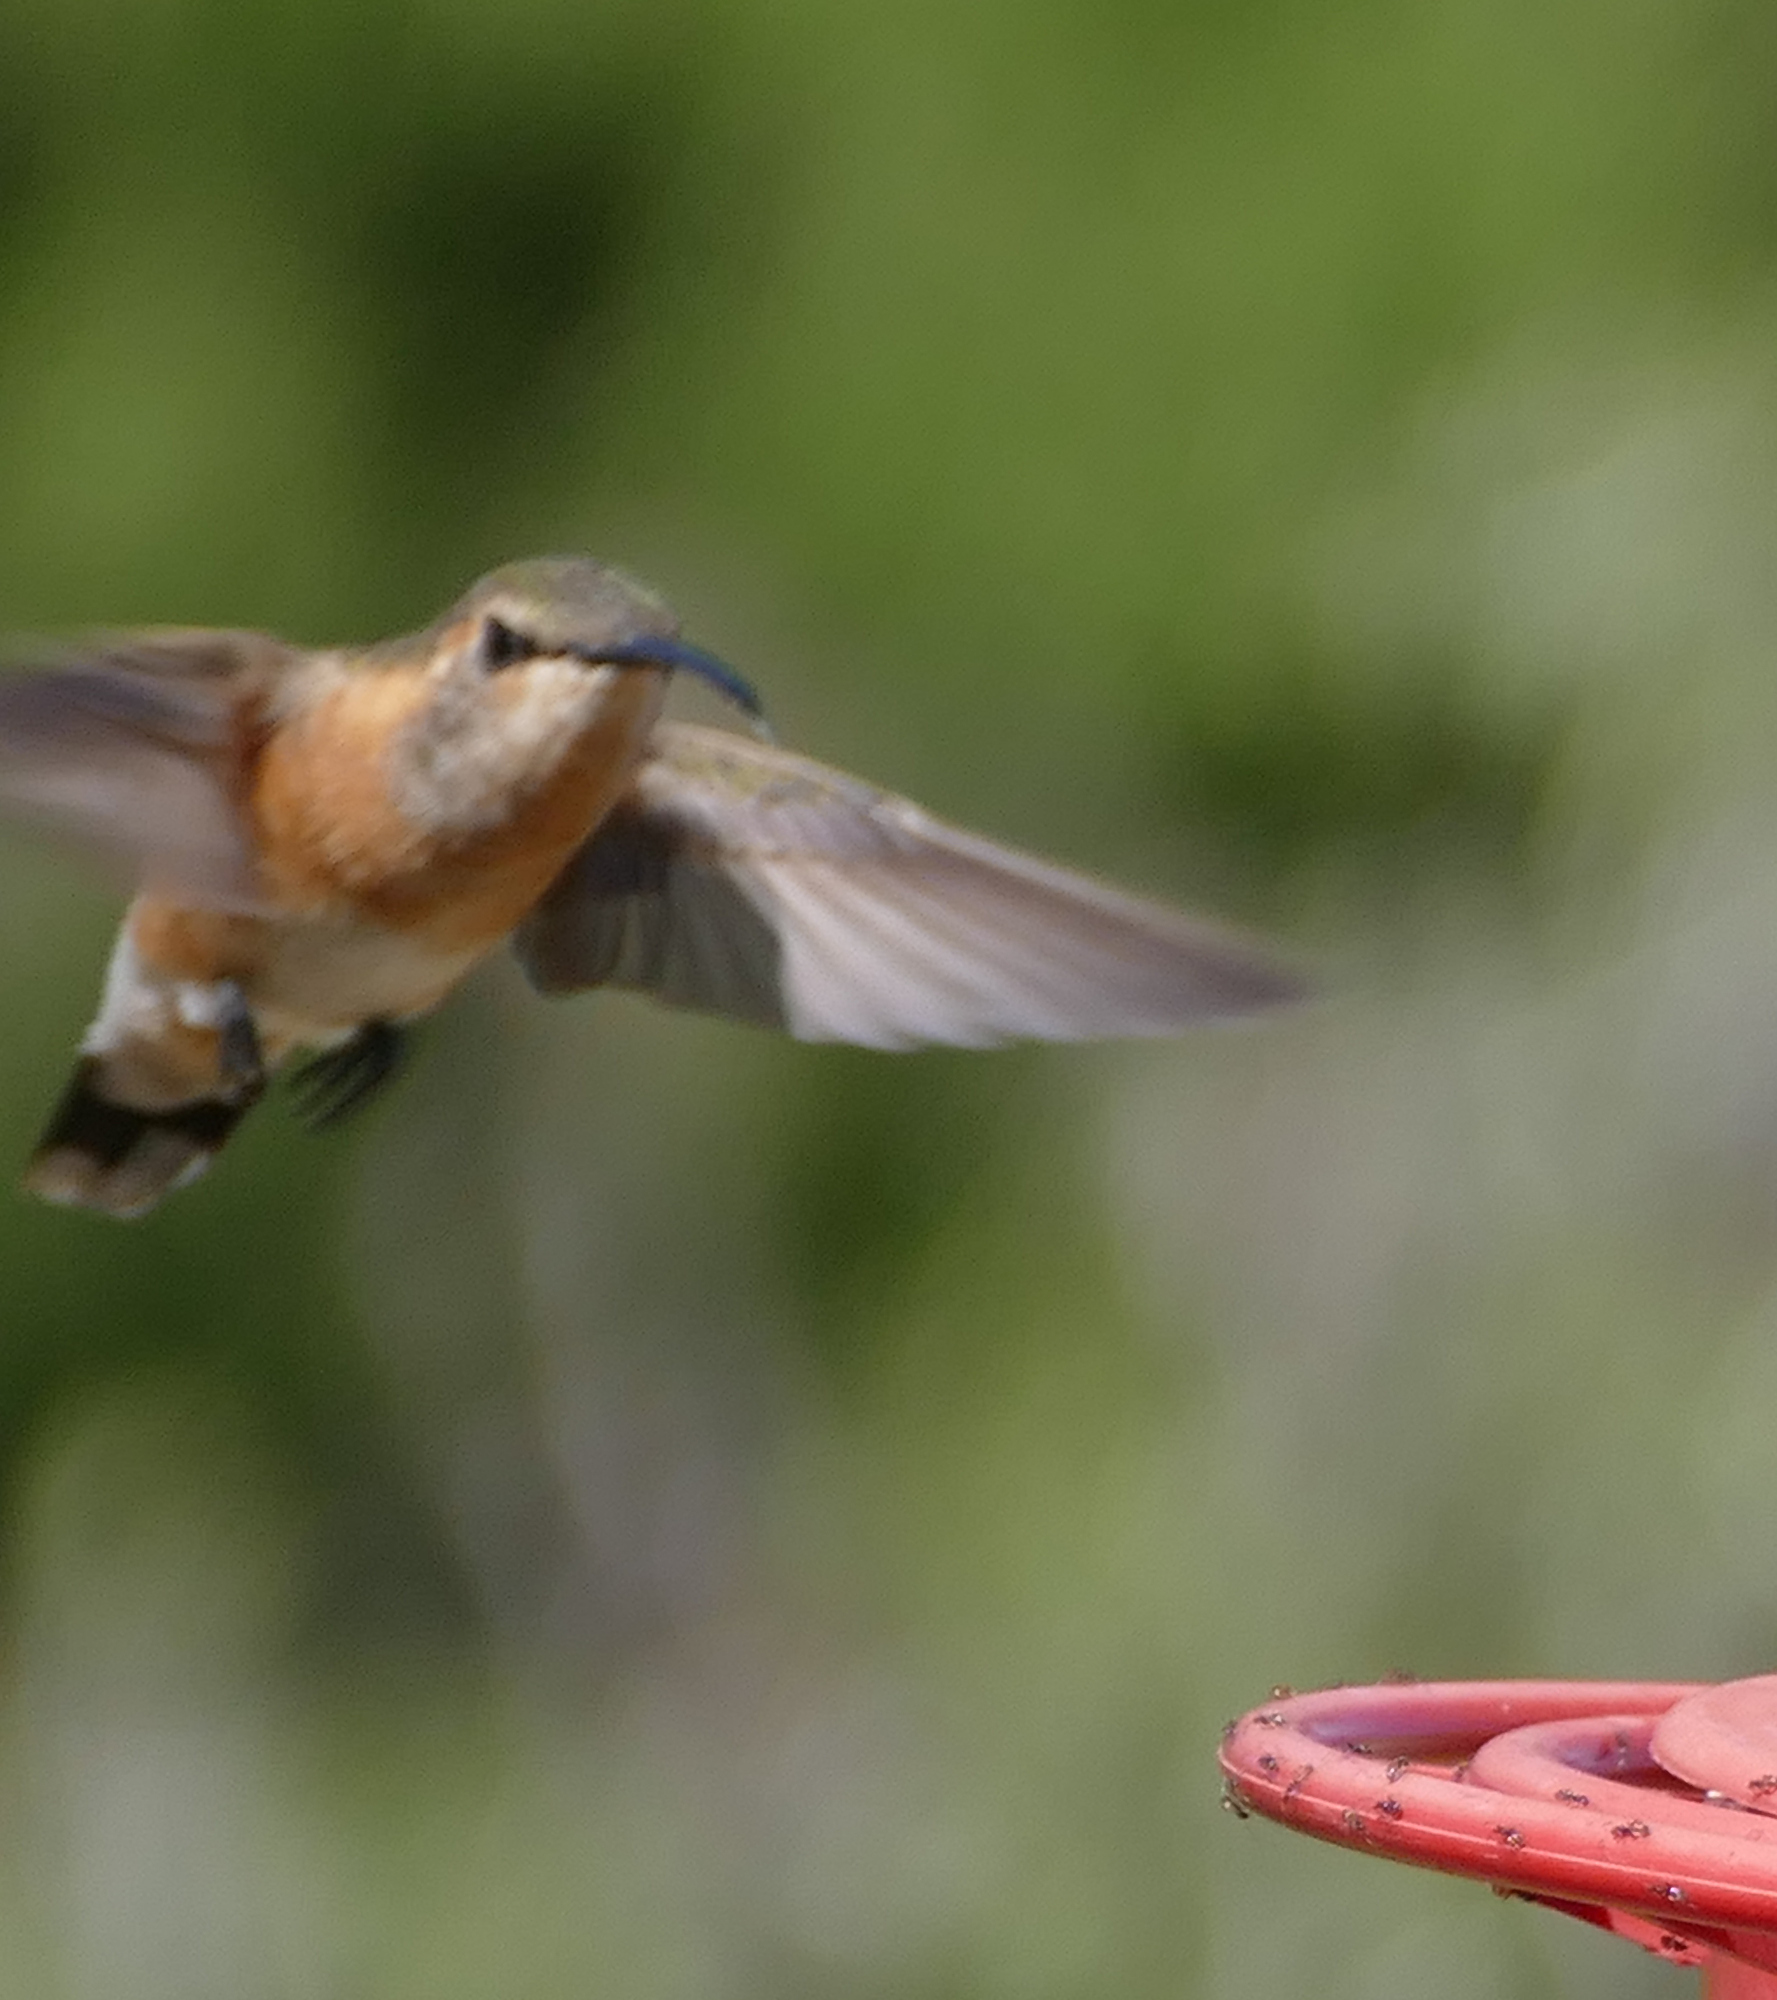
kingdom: Animalia
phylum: Chordata
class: Aves
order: Apodiformes
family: Trochilidae
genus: Calothorax
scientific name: Calothorax lucifer
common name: Lucifer sheartail
